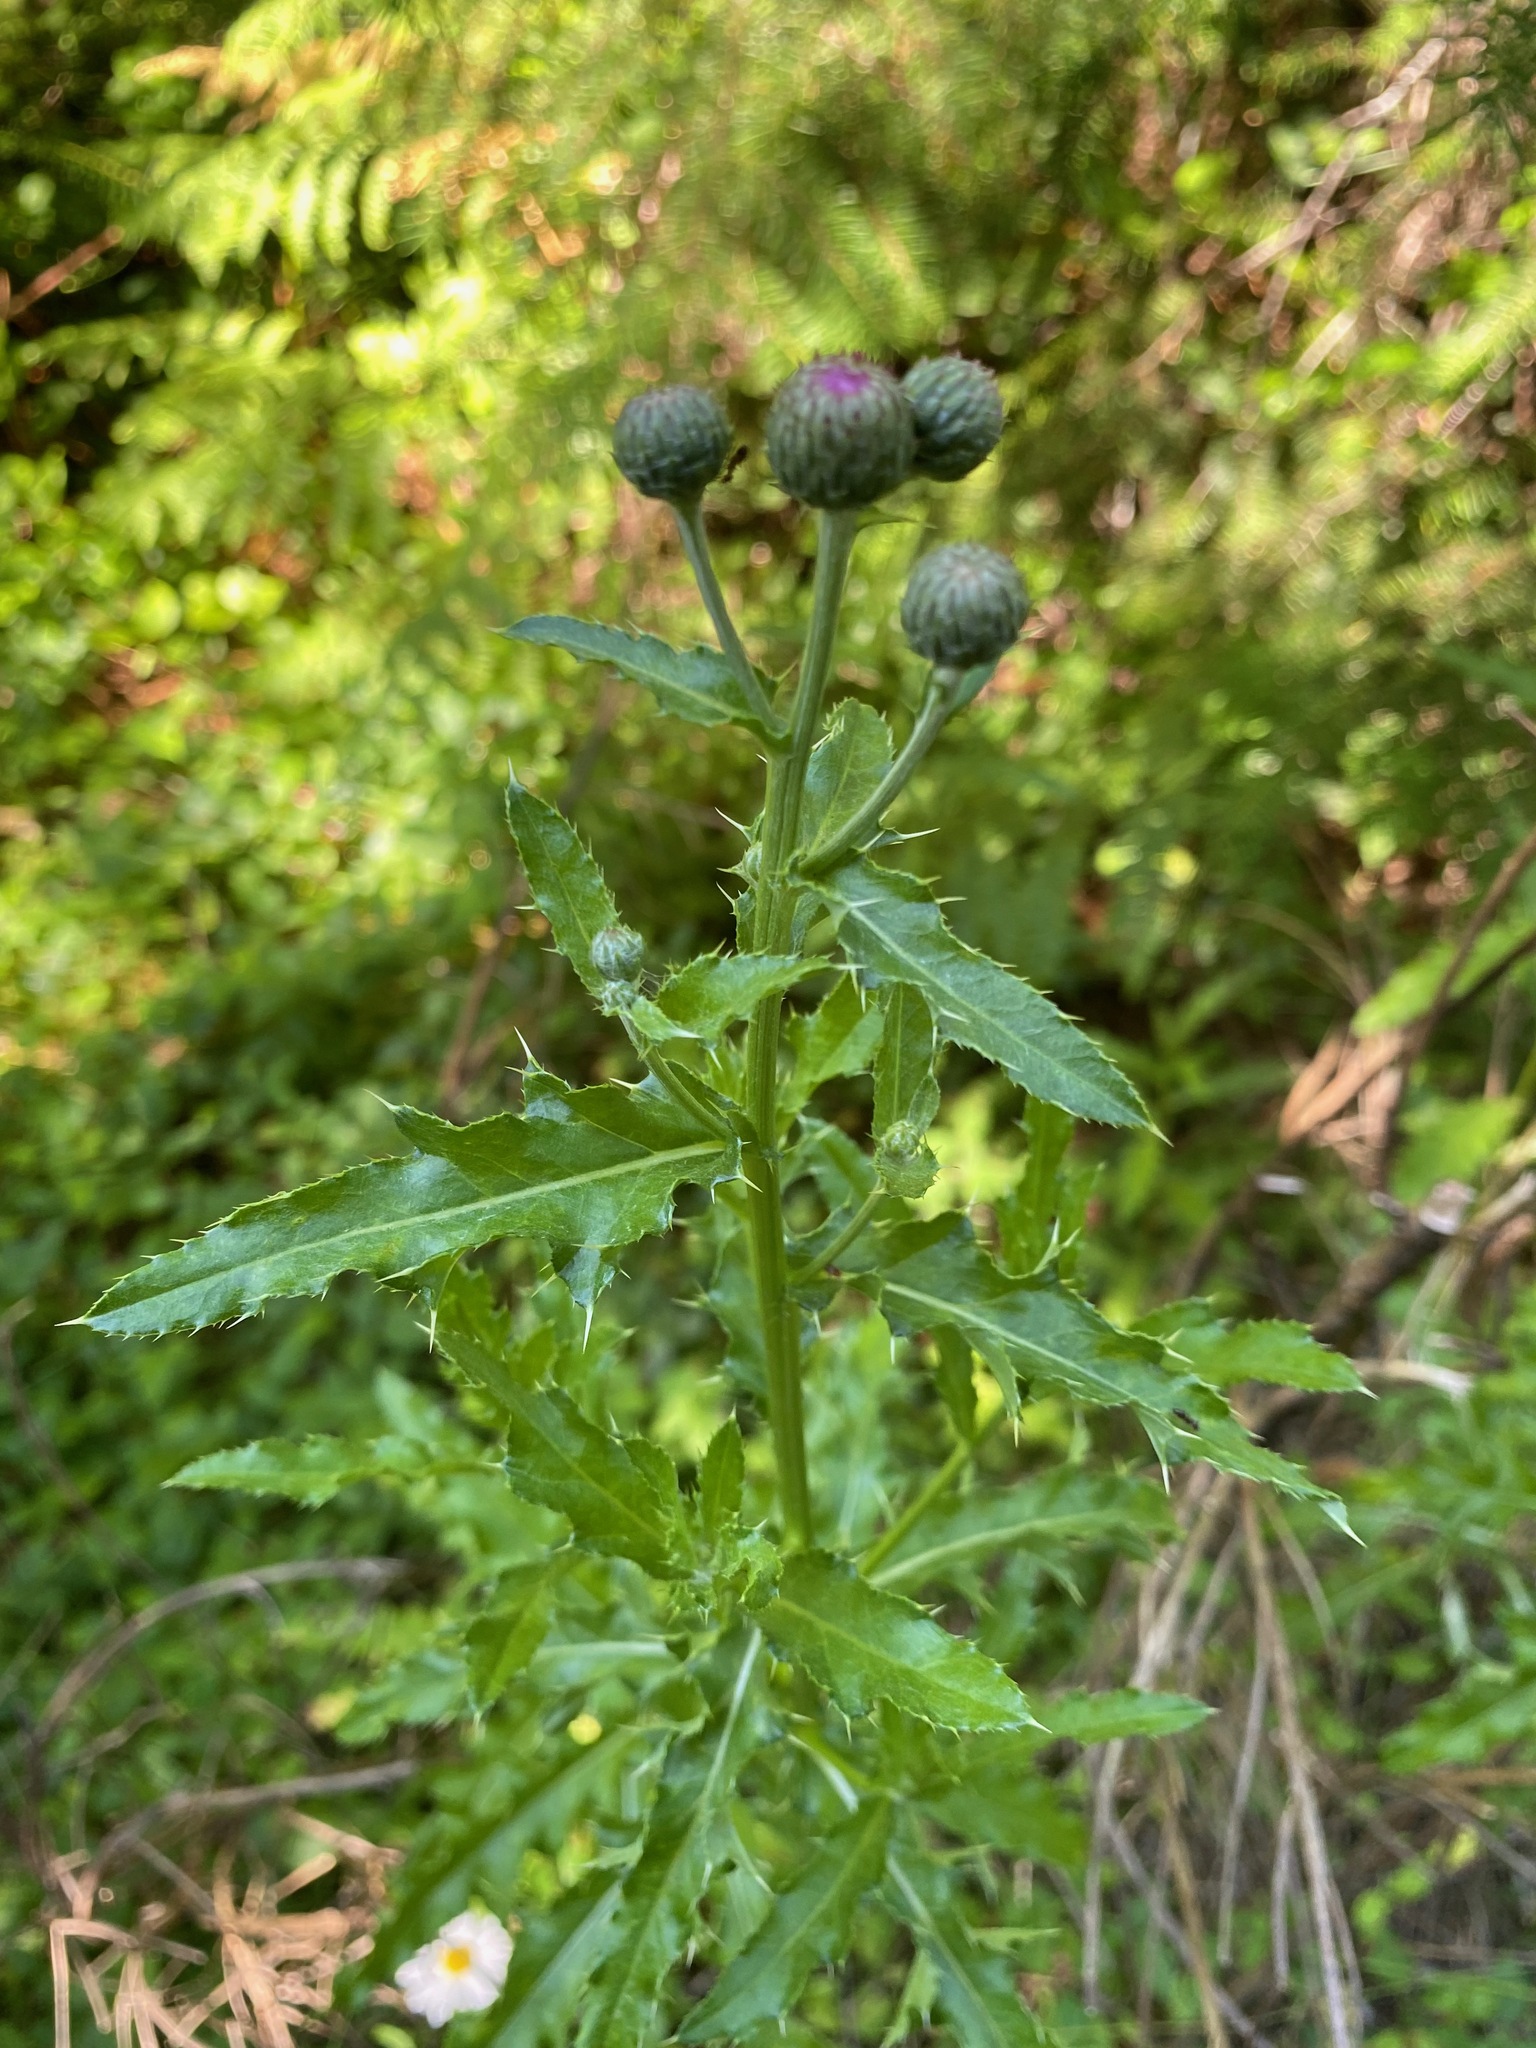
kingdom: Plantae
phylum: Tracheophyta
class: Magnoliopsida
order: Asterales
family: Asteraceae
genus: Cirsium
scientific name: Cirsium arvense
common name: Creeping thistle
